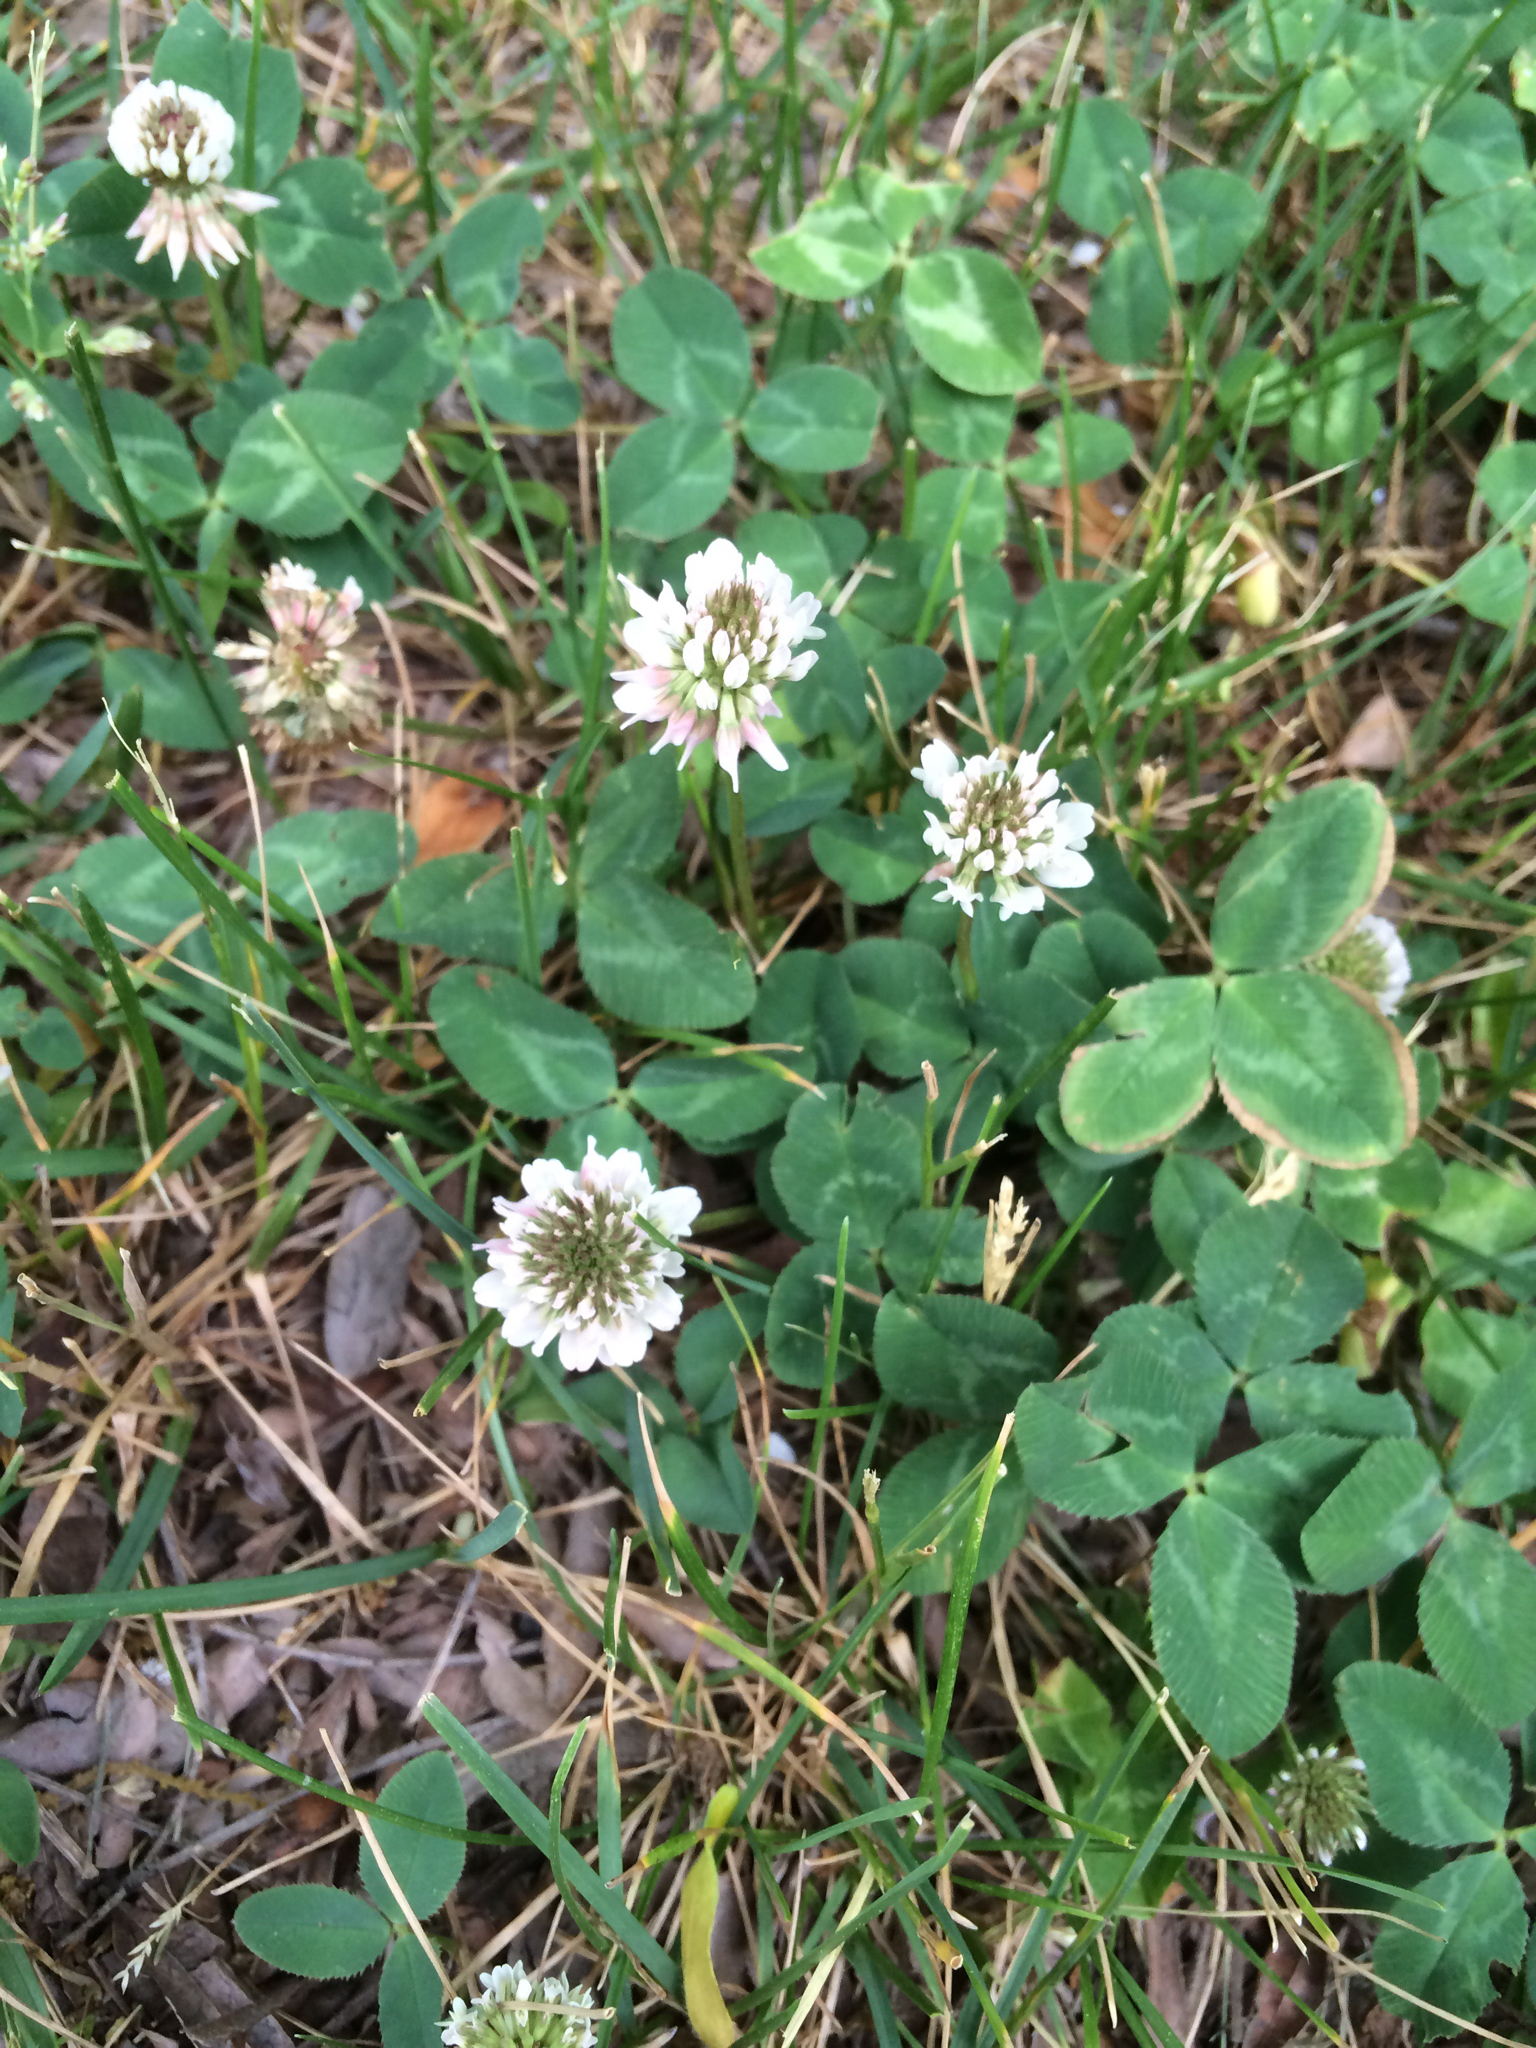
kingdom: Plantae
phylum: Tracheophyta
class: Magnoliopsida
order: Fabales
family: Fabaceae
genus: Trifolium
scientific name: Trifolium repens
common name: White clover
